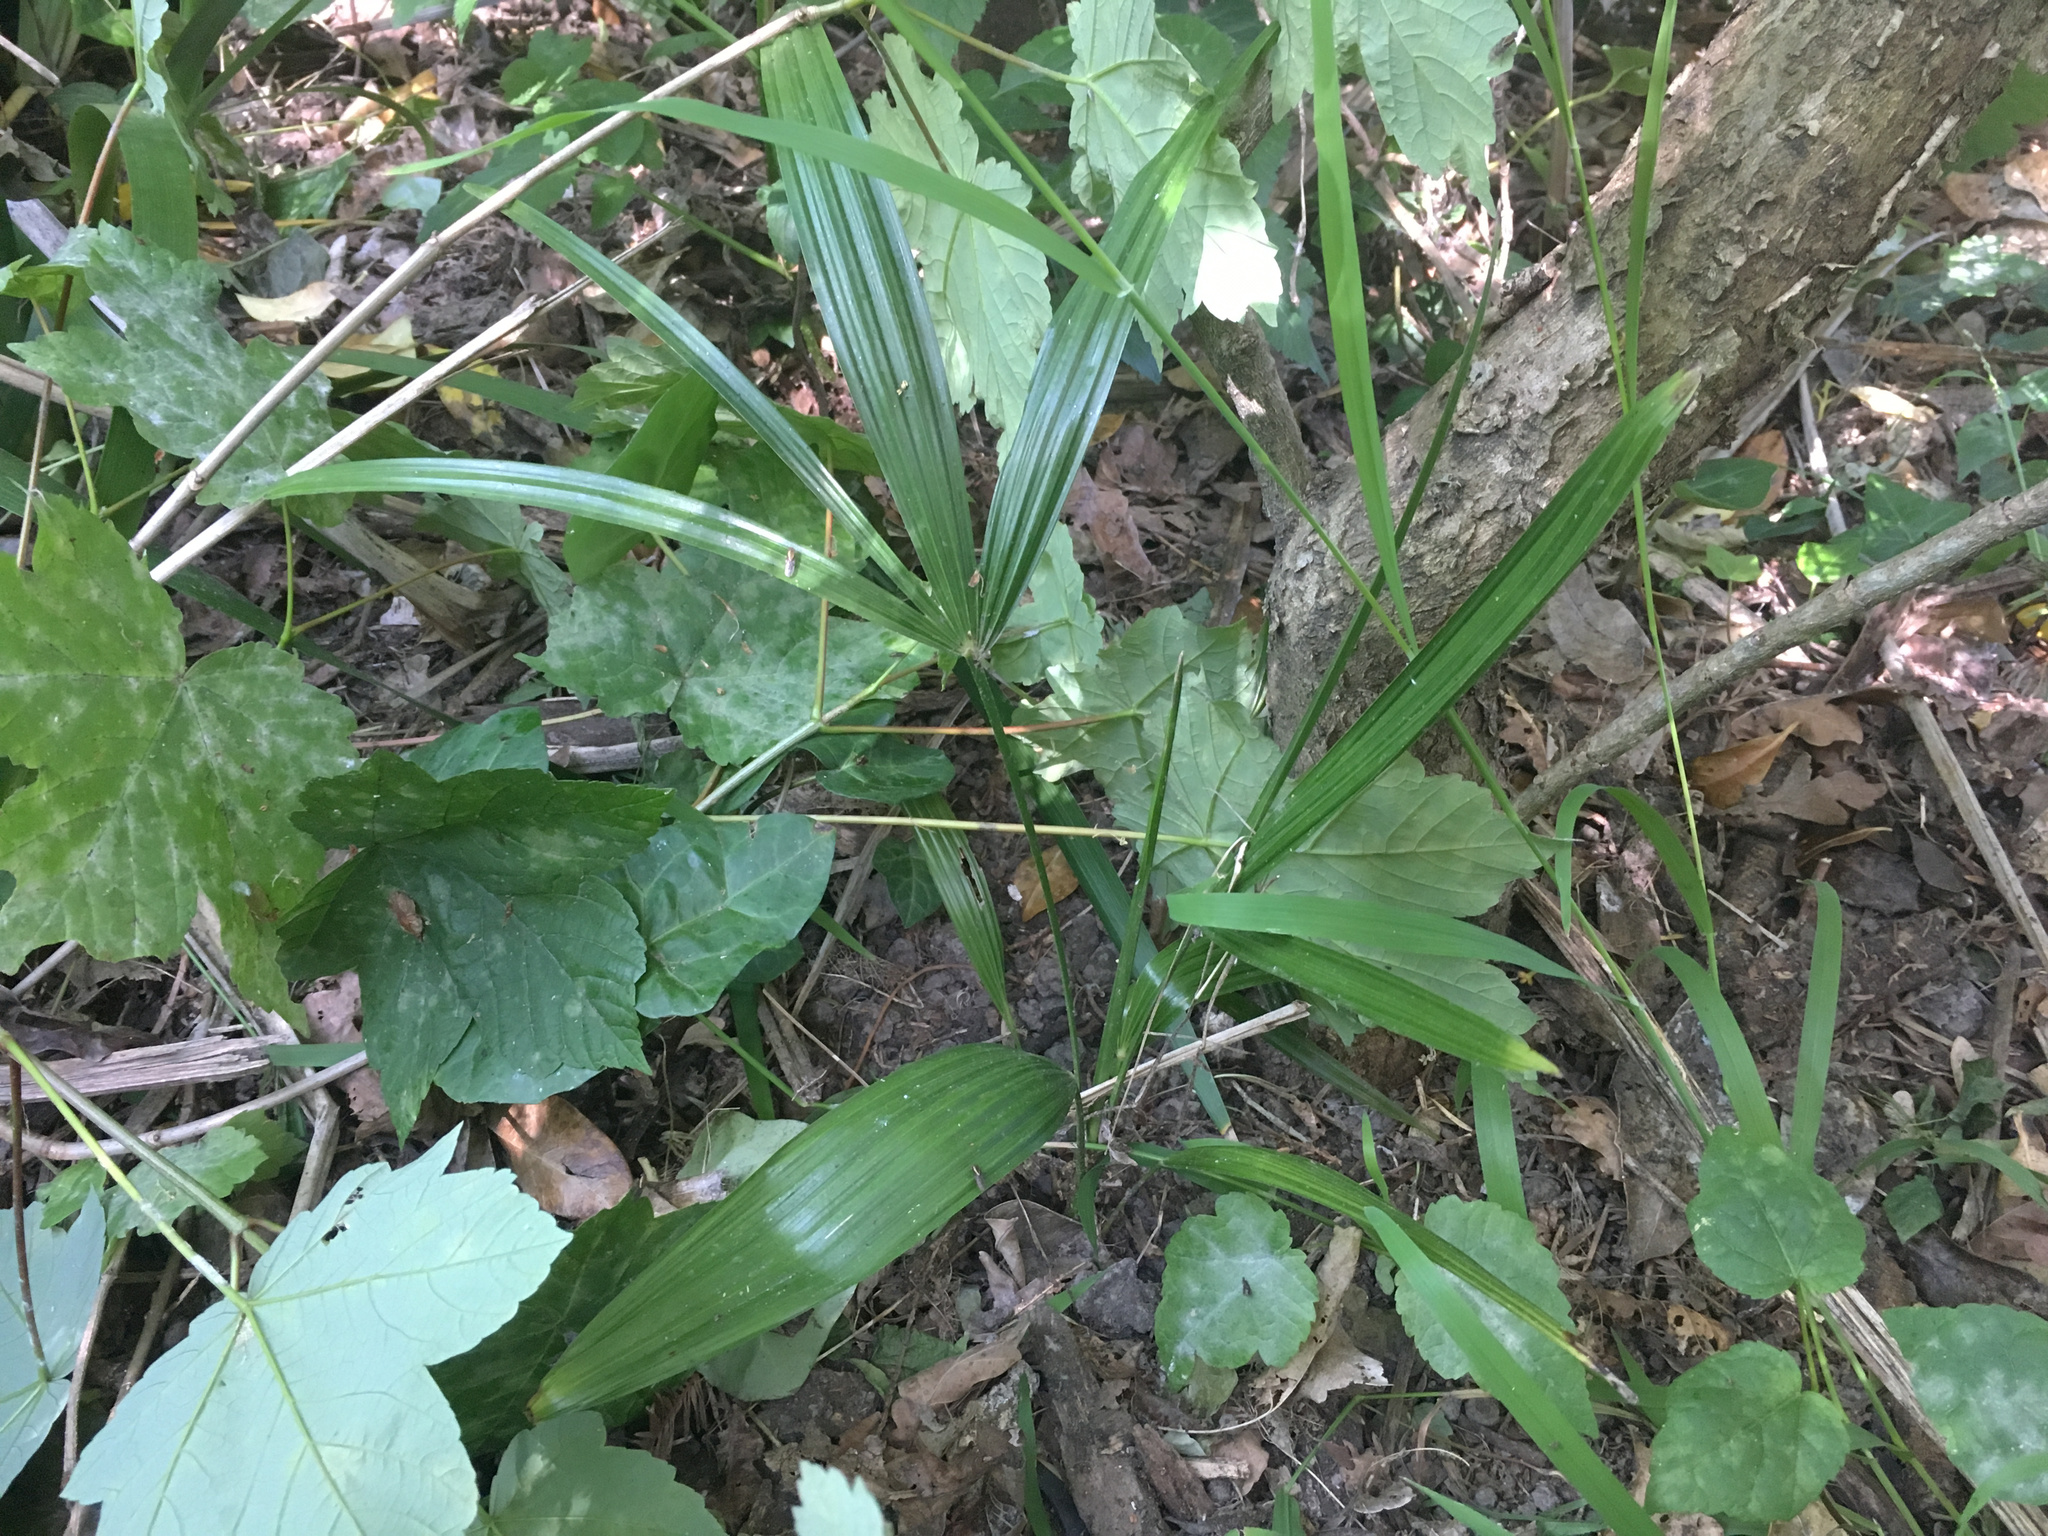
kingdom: Plantae
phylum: Tracheophyta
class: Liliopsida
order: Arecales
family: Arecaceae
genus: Trachycarpus
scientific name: Trachycarpus fortunei
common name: Chusan palm
